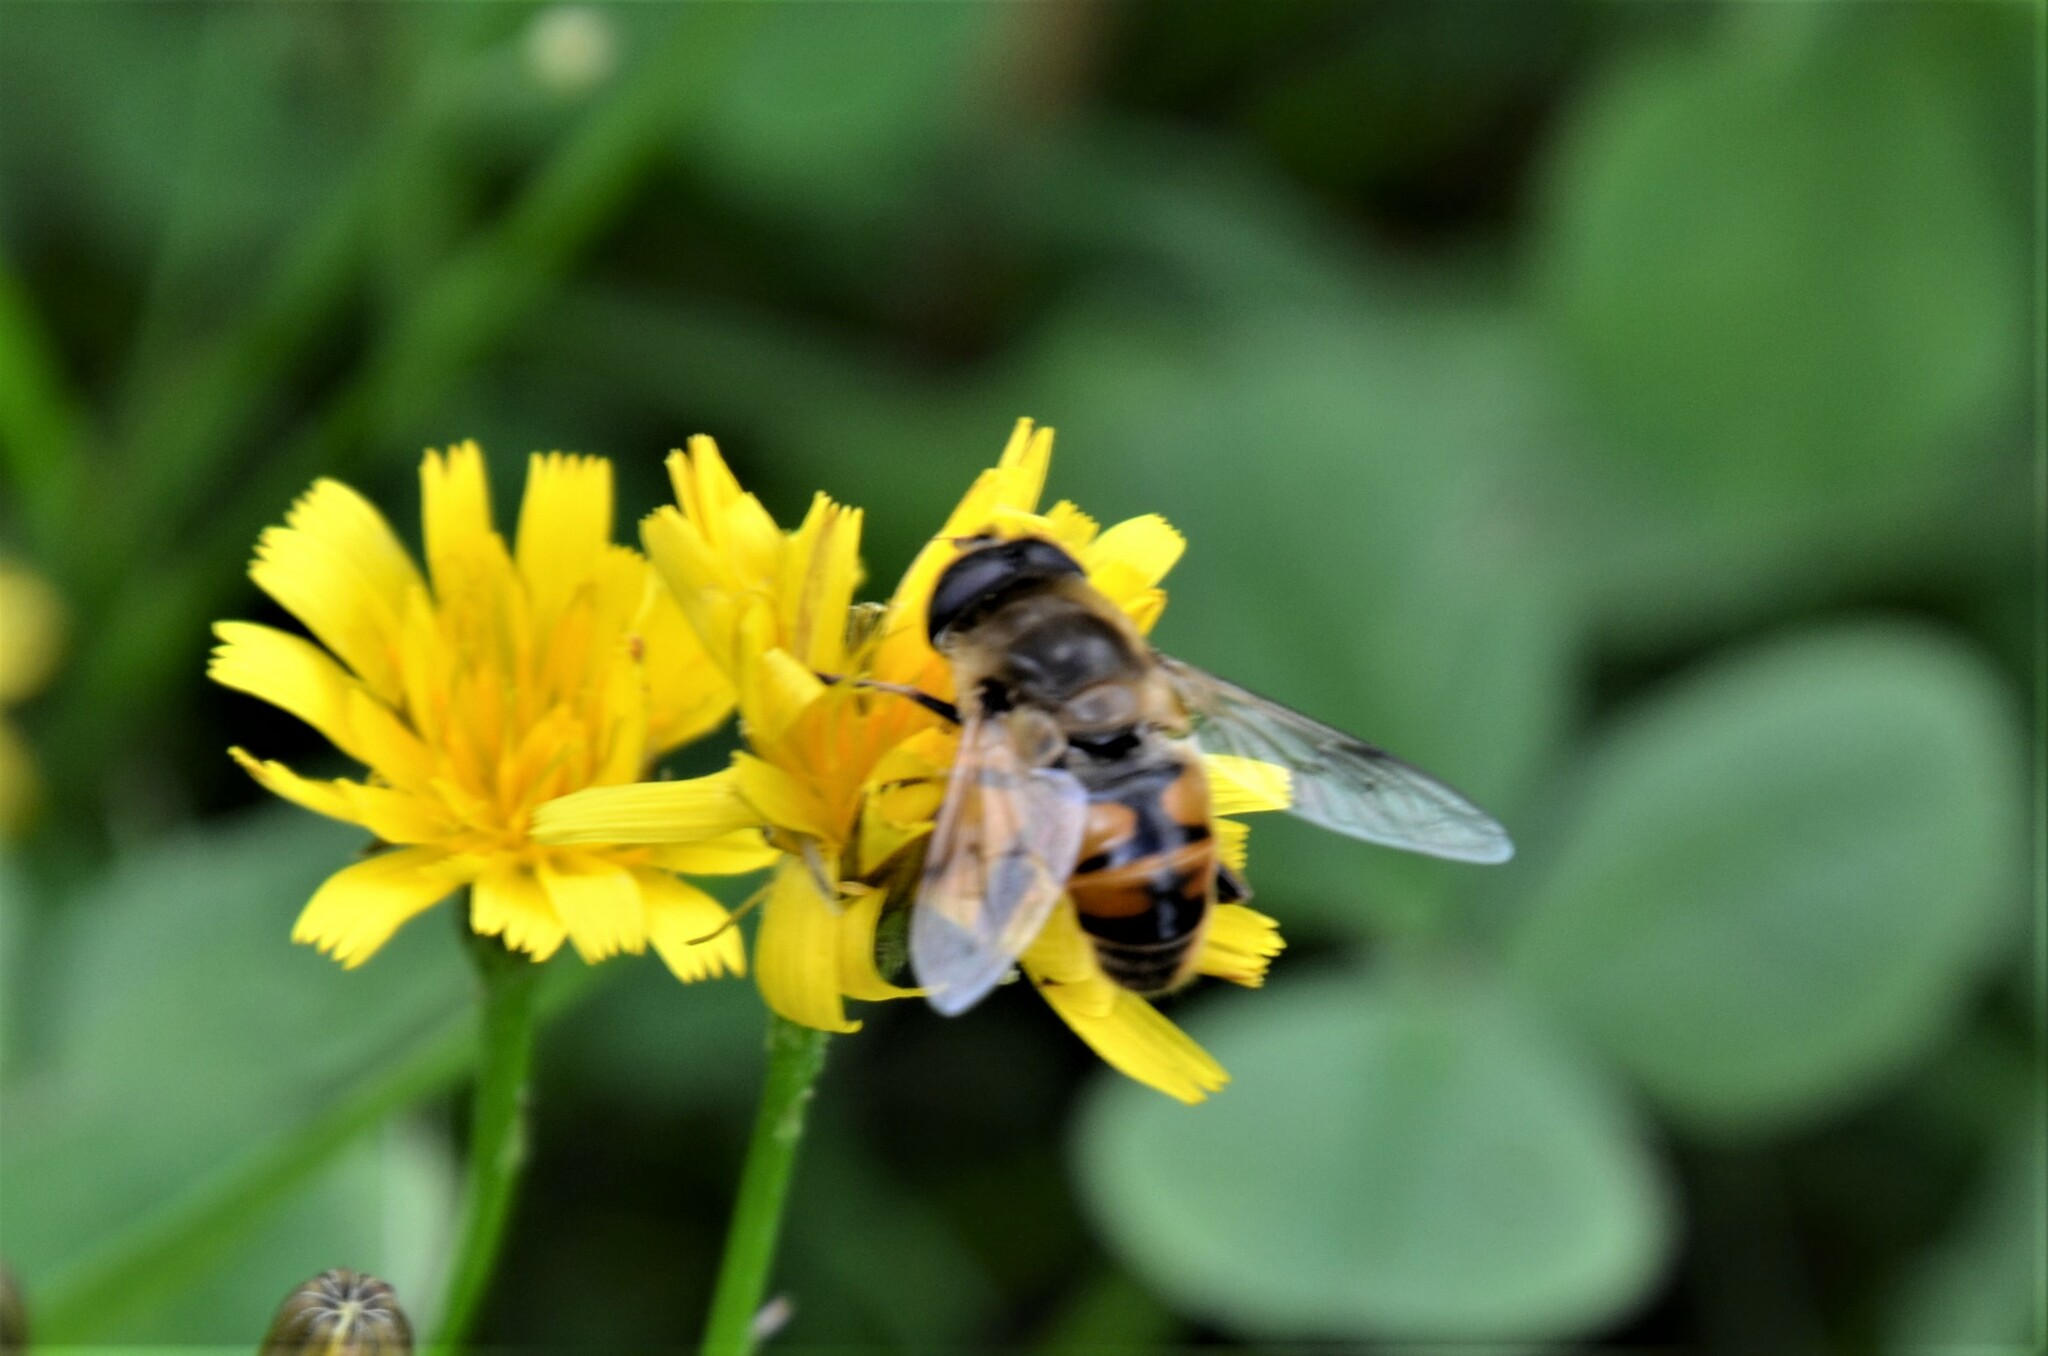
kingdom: Animalia
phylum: Arthropoda
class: Insecta
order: Diptera
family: Syrphidae
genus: Eristalis
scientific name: Eristalis tenax
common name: Drone fly
